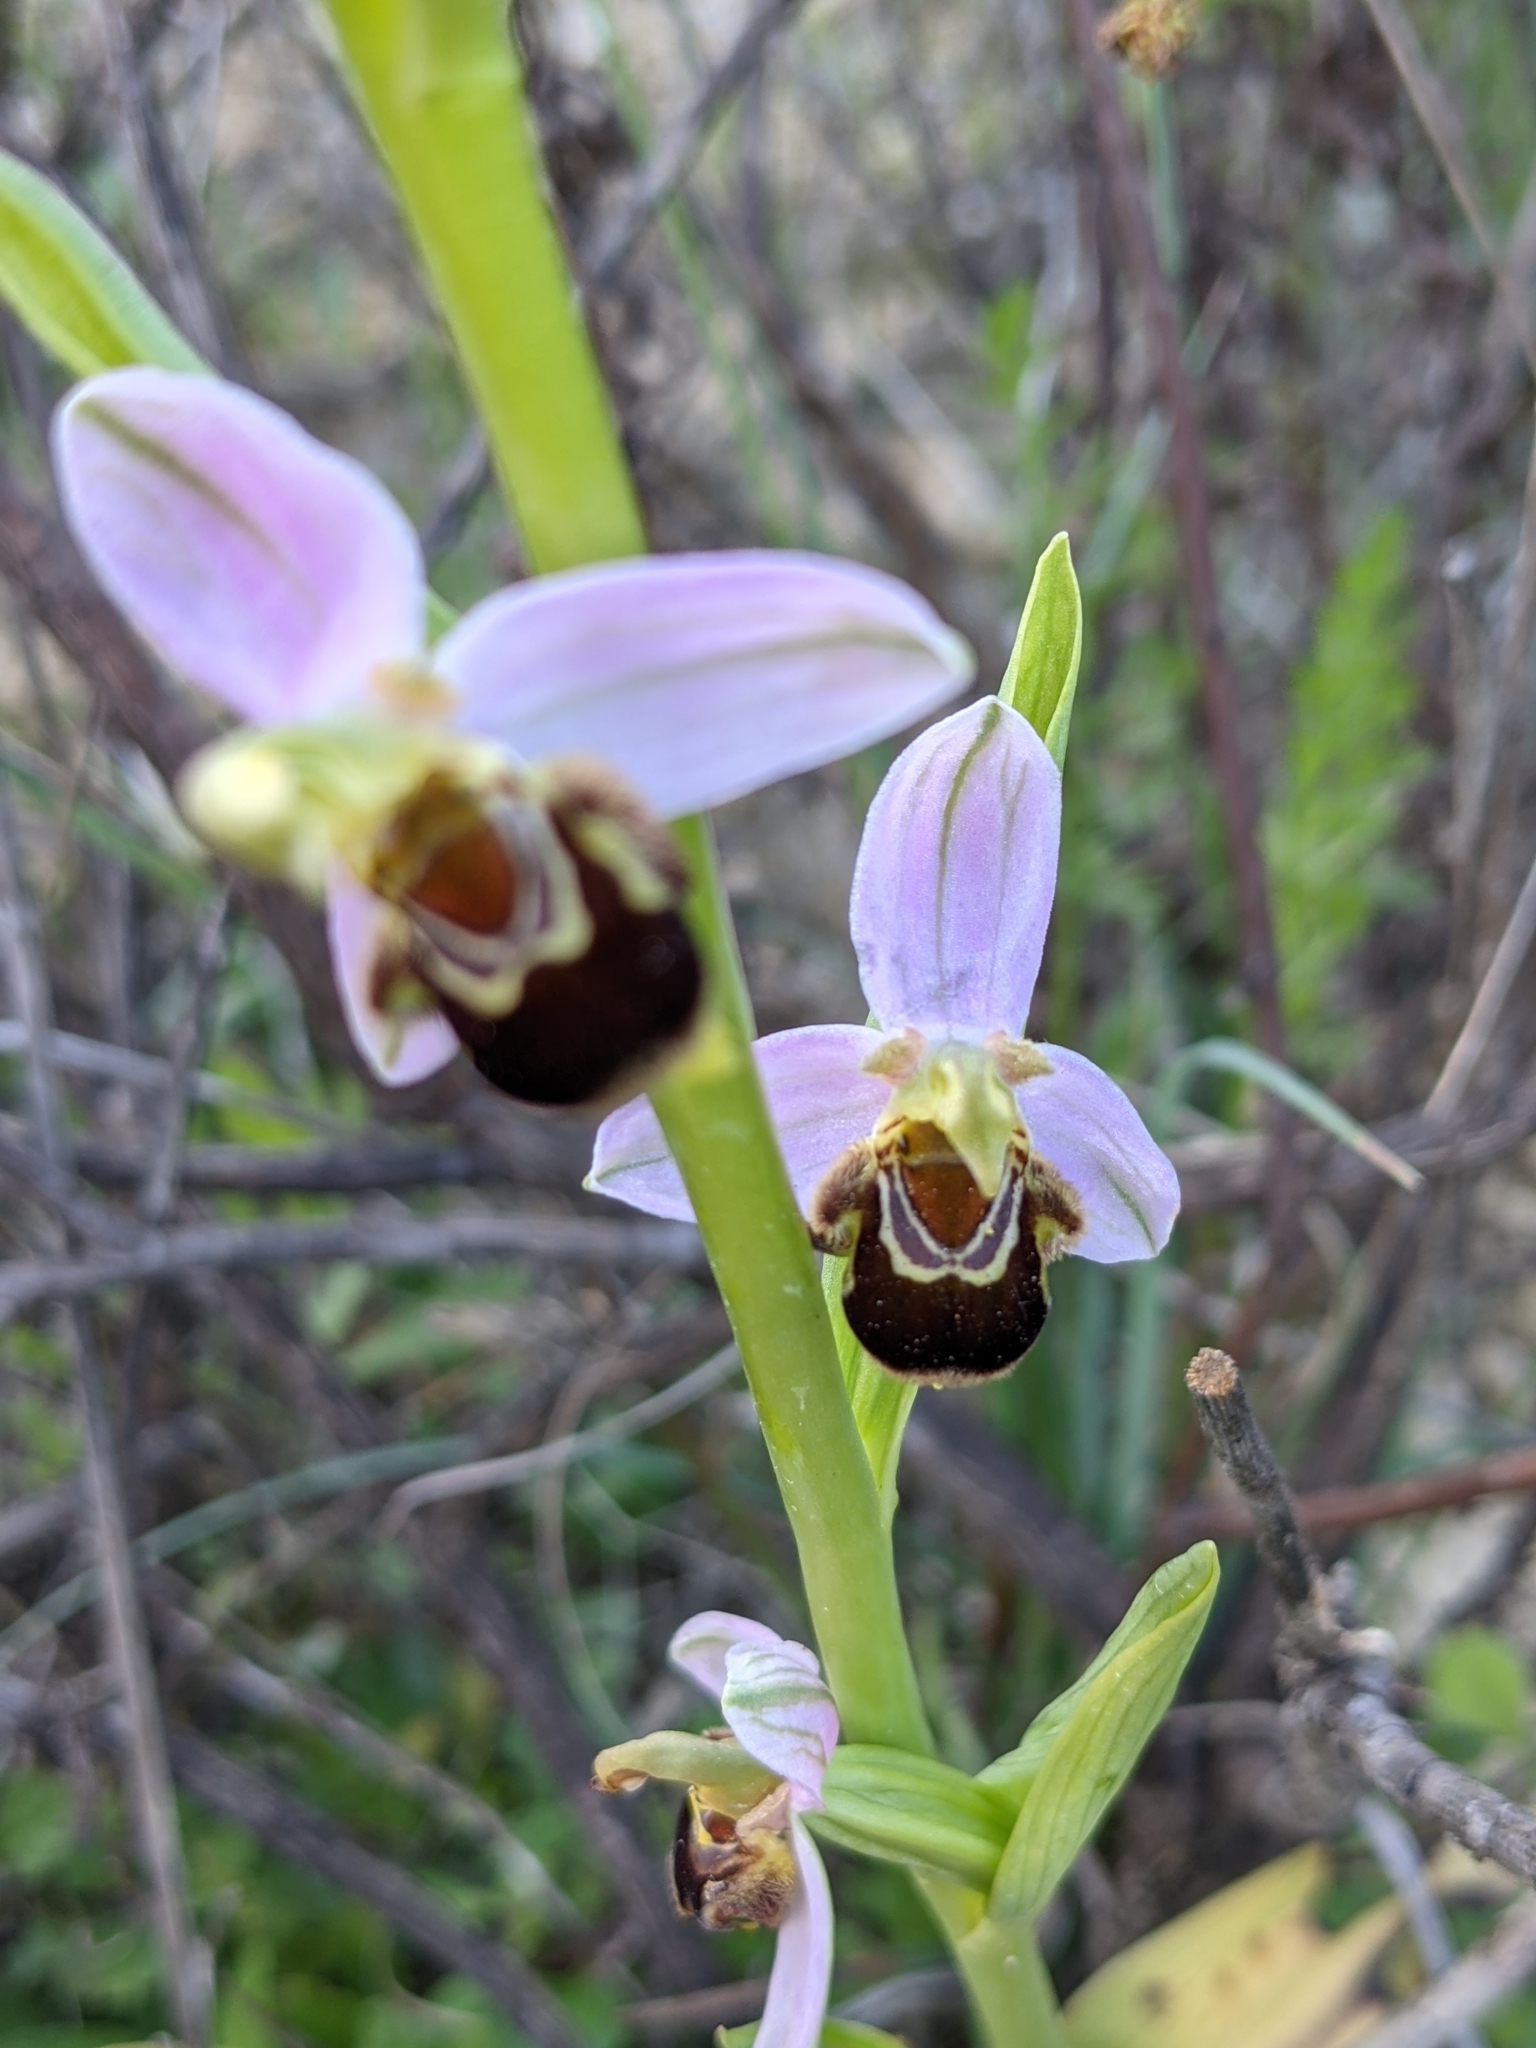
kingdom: Plantae
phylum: Tracheophyta
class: Liliopsida
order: Asparagales
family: Orchidaceae
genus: Ophrys
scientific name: Ophrys apifera
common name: Bee orchid
